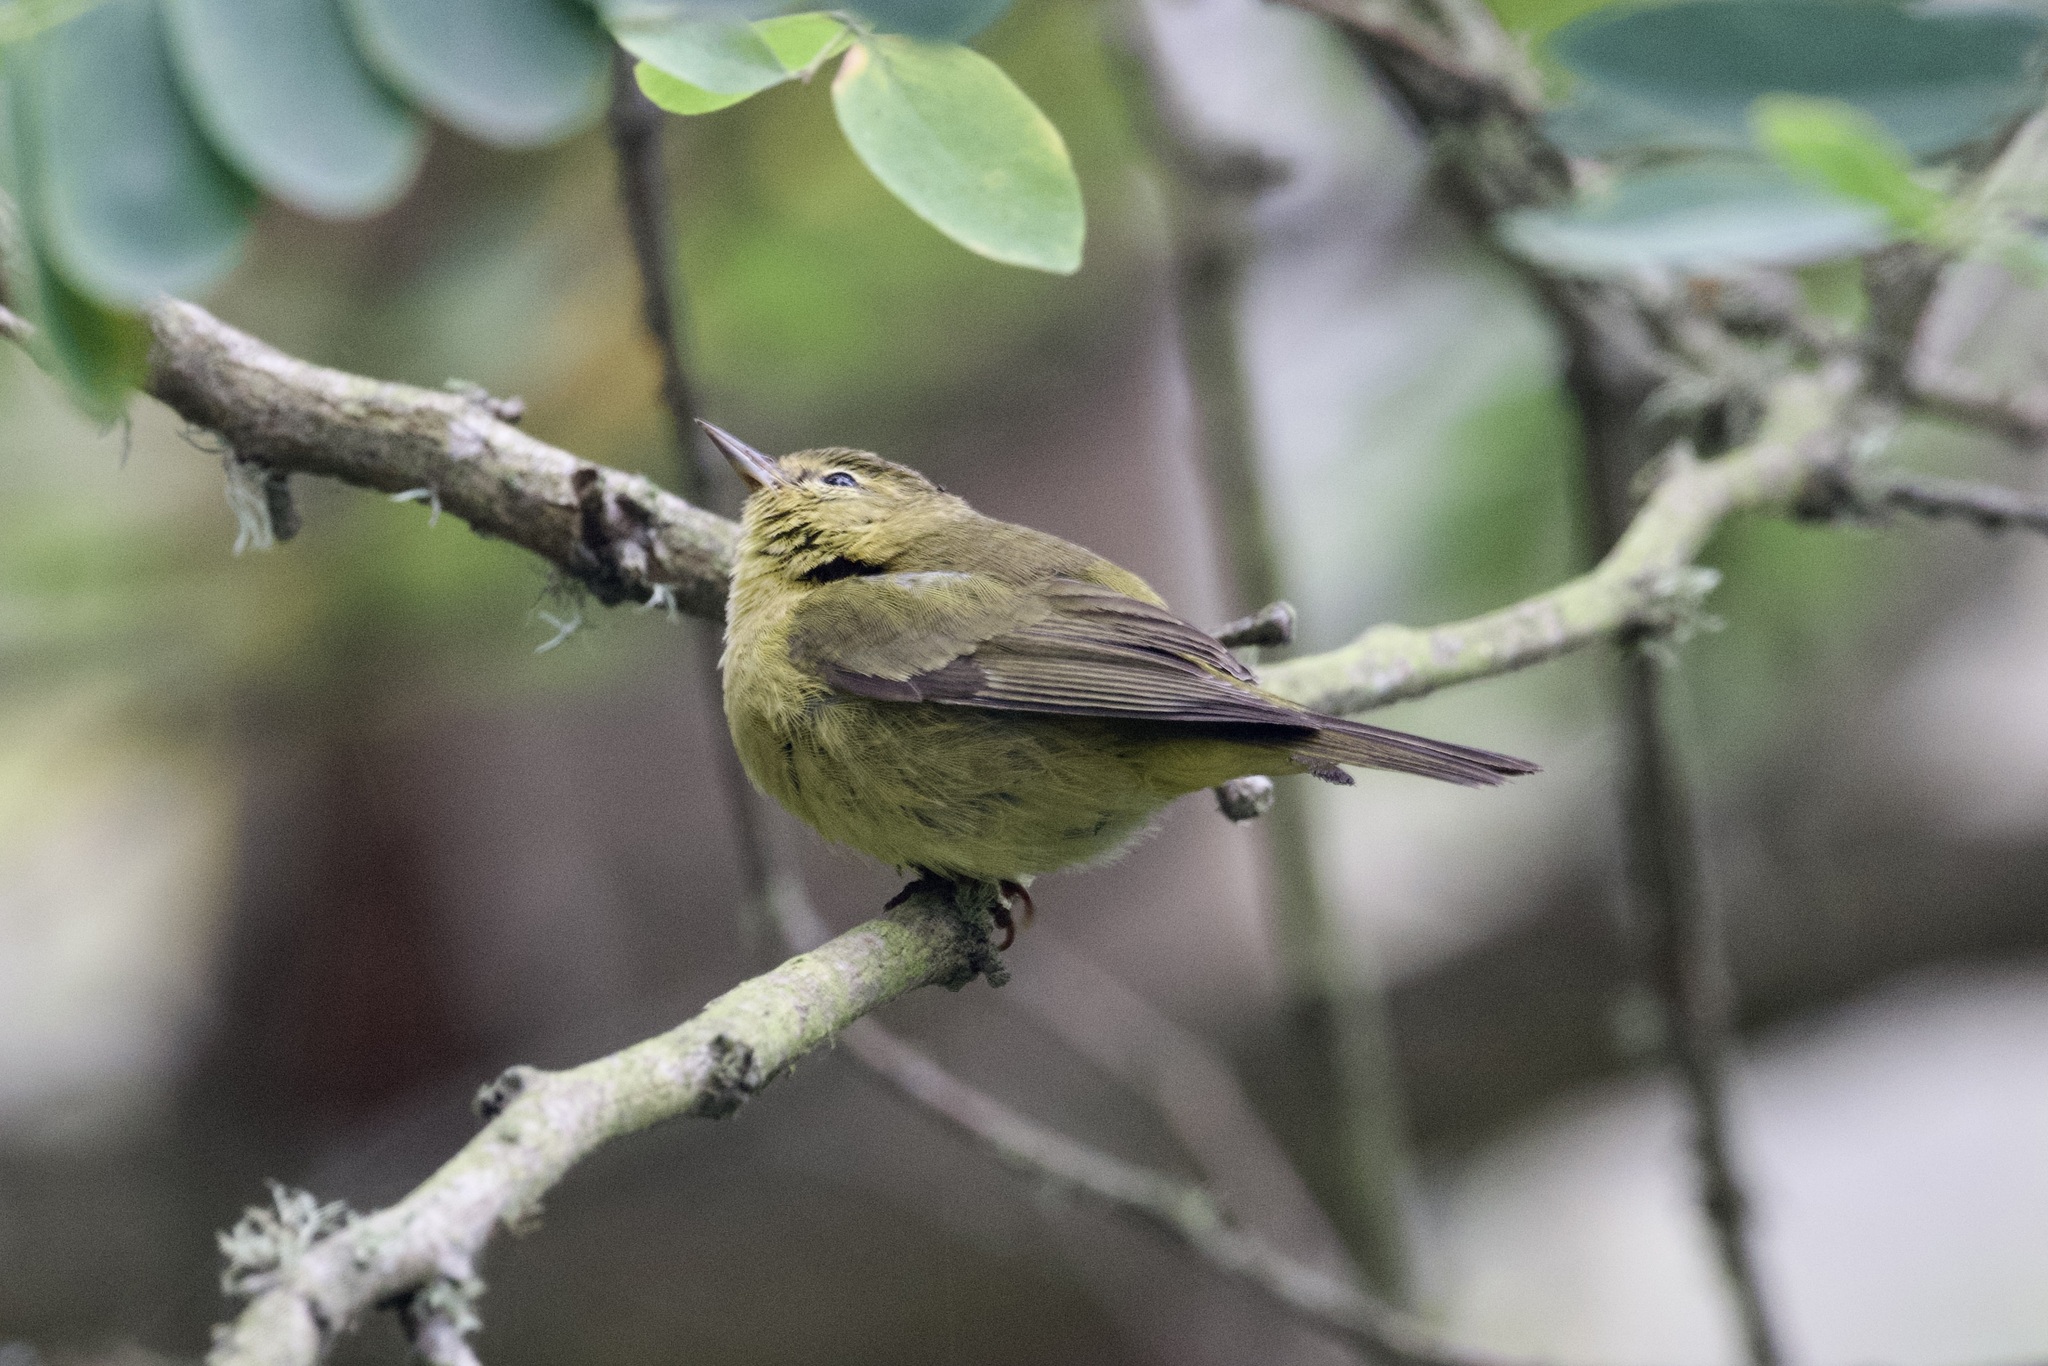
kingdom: Animalia
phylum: Chordata
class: Aves
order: Passeriformes
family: Parulidae
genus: Leiothlypis
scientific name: Leiothlypis celata
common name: Orange-crowned warbler
